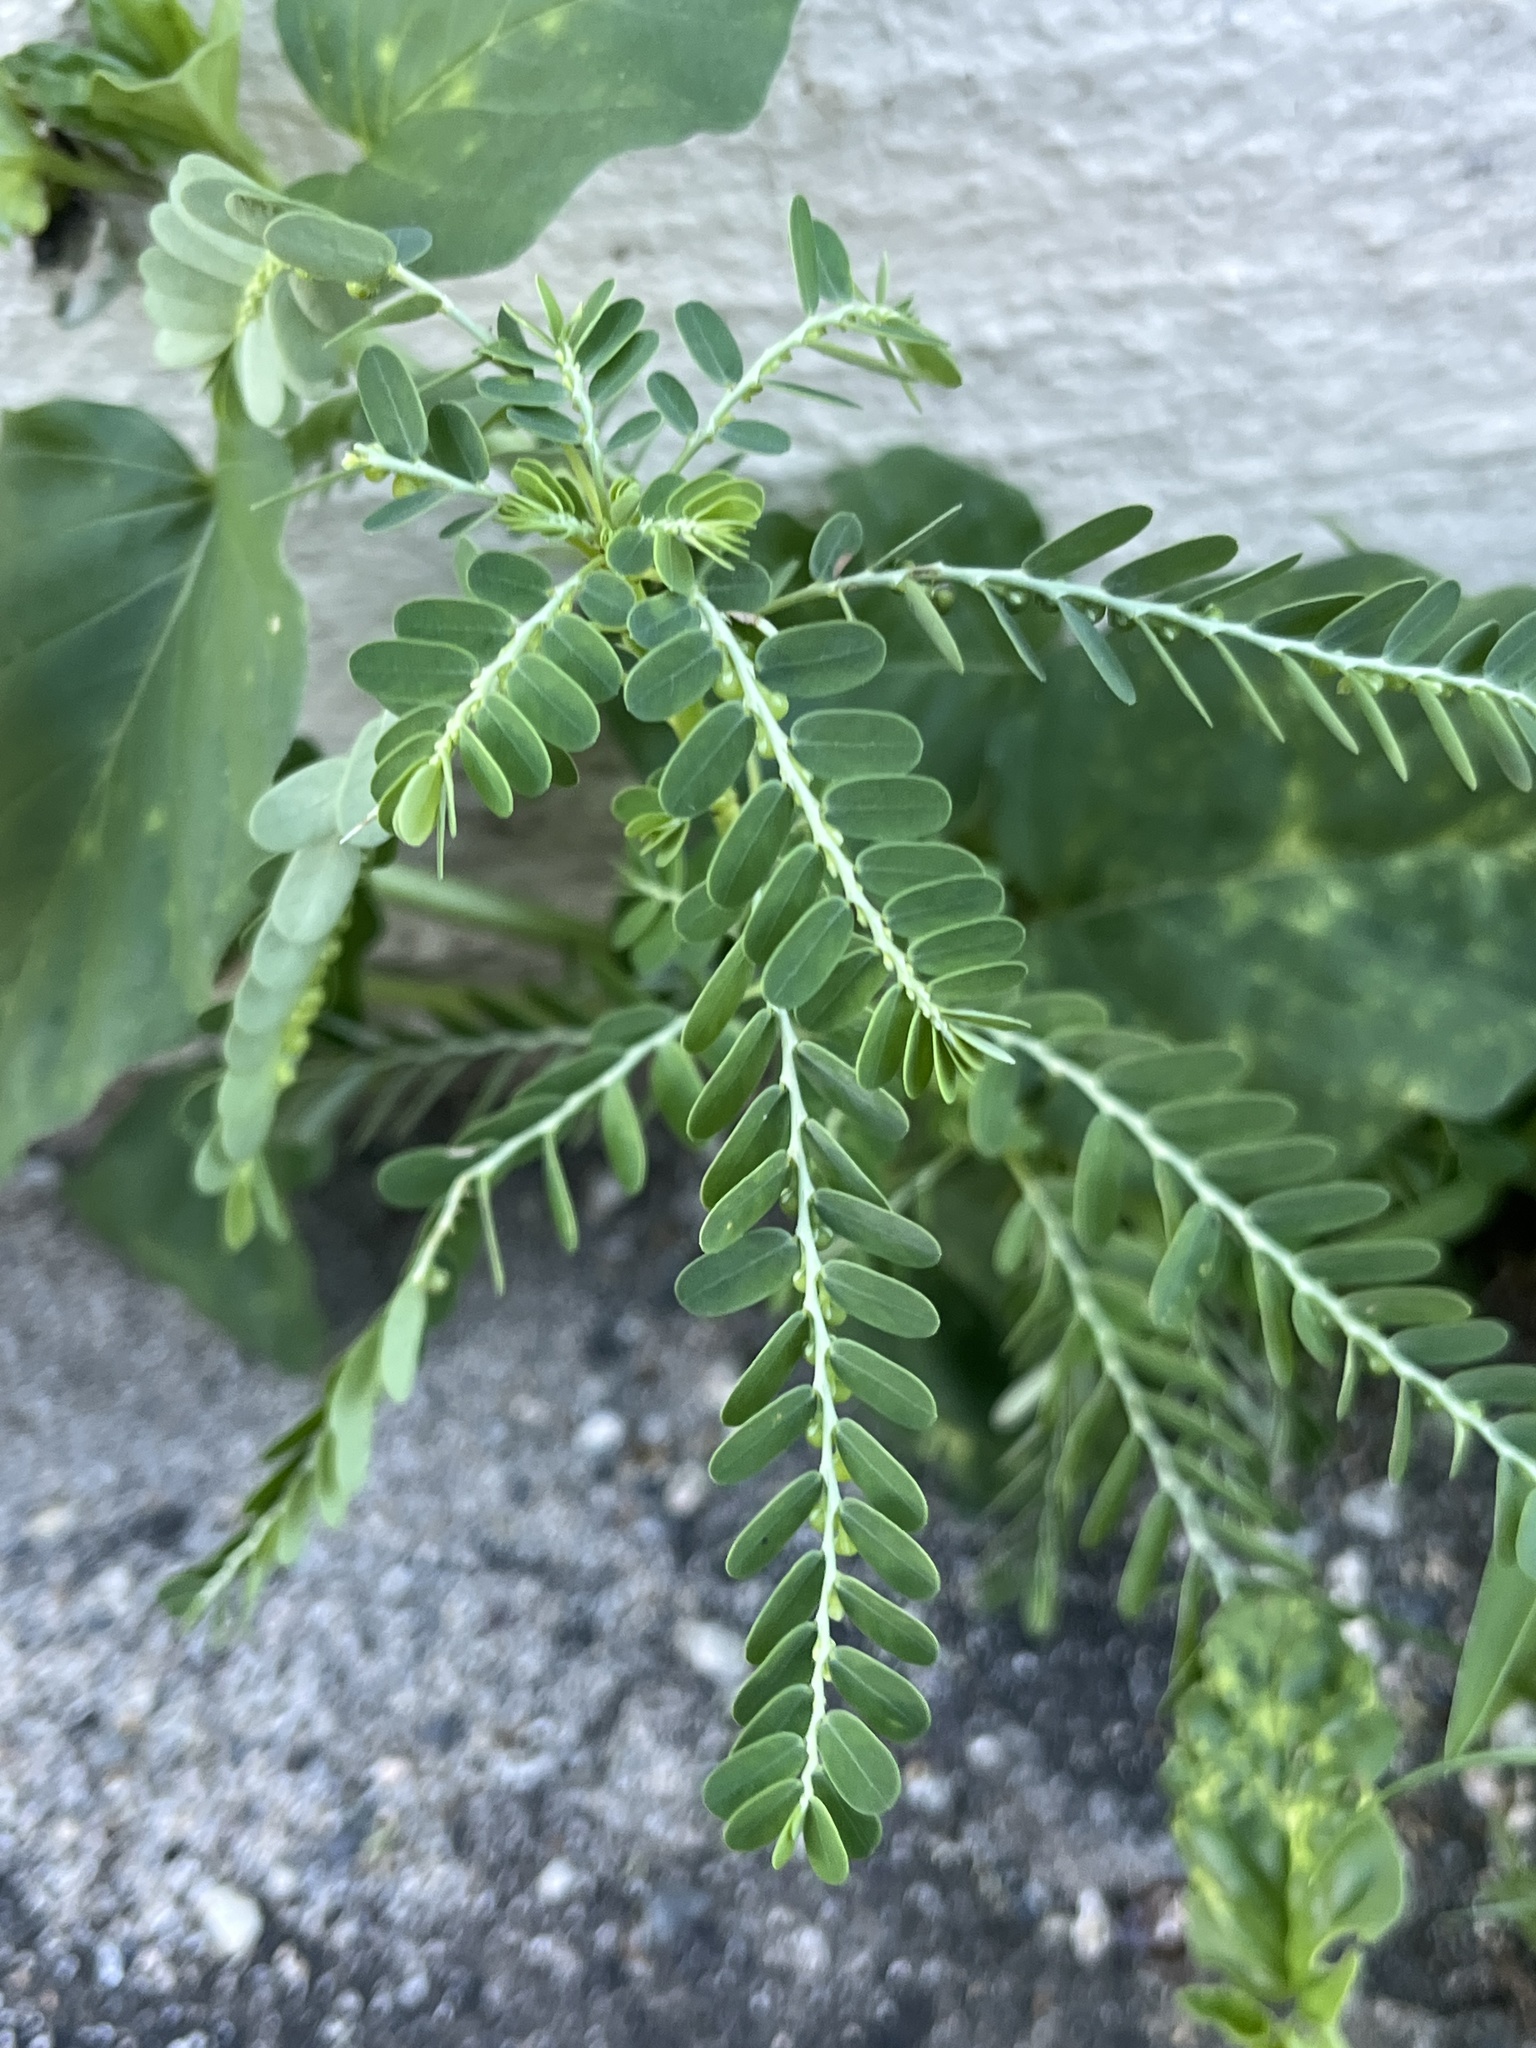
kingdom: Plantae
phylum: Tracheophyta
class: Magnoliopsida
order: Malpighiales
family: Phyllanthaceae
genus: Phyllanthus
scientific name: Phyllanthus amarus
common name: Carry me seed
